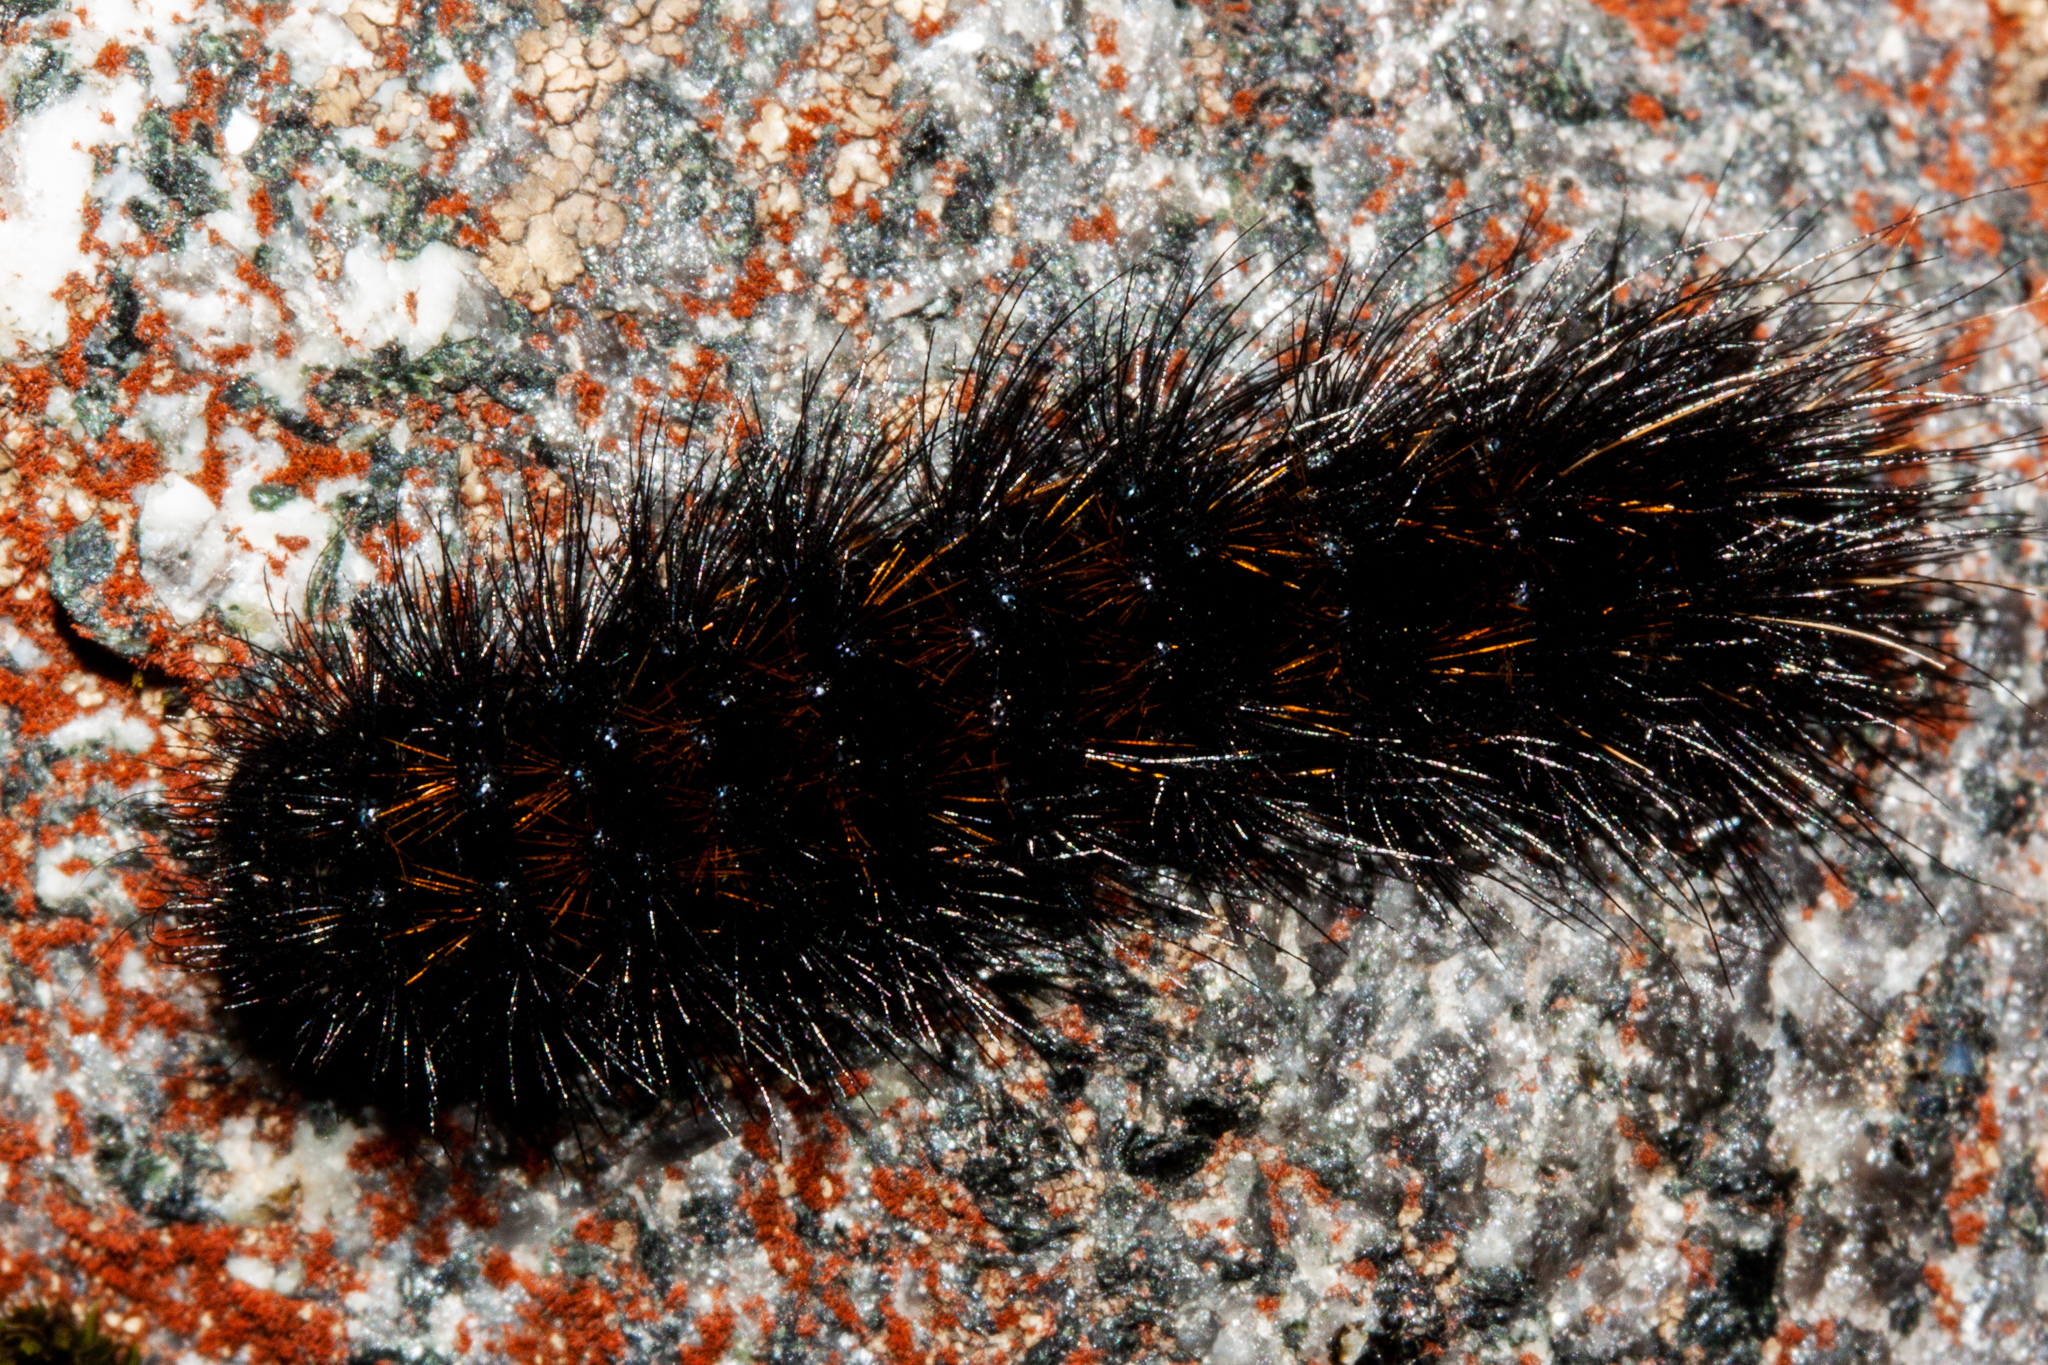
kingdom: Animalia
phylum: Arthropoda
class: Insecta
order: Lepidoptera
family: Erebidae
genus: Metacrias
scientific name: Metacrias erichrysa
